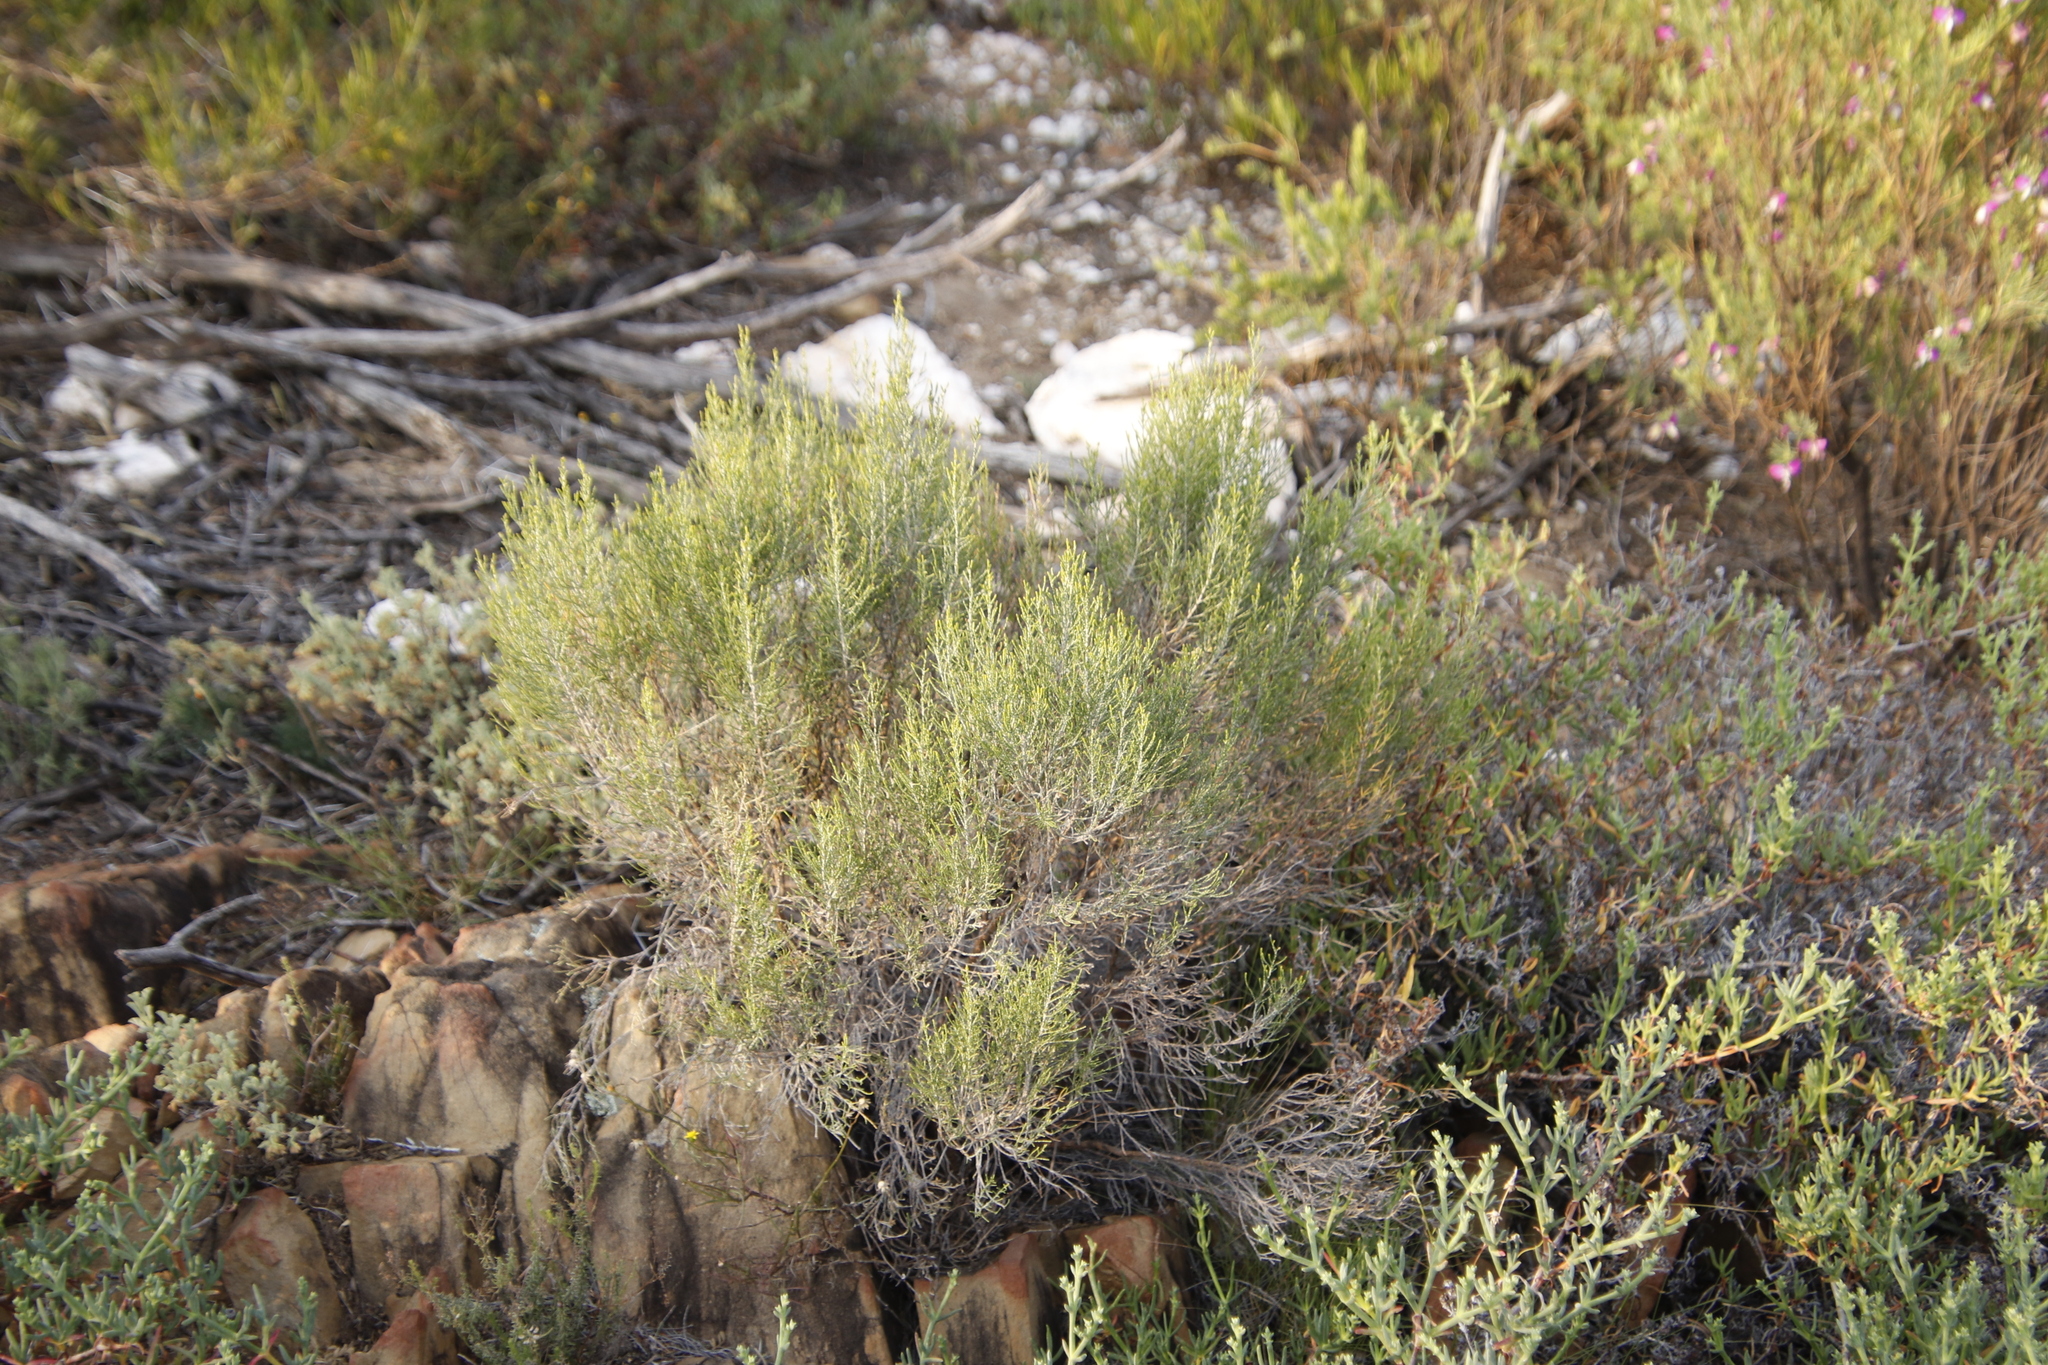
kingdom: Plantae
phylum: Tracheophyta
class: Magnoliopsida
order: Asterales
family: Asteraceae
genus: Dicerothamnus
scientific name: Dicerothamnus rhinocerotis
